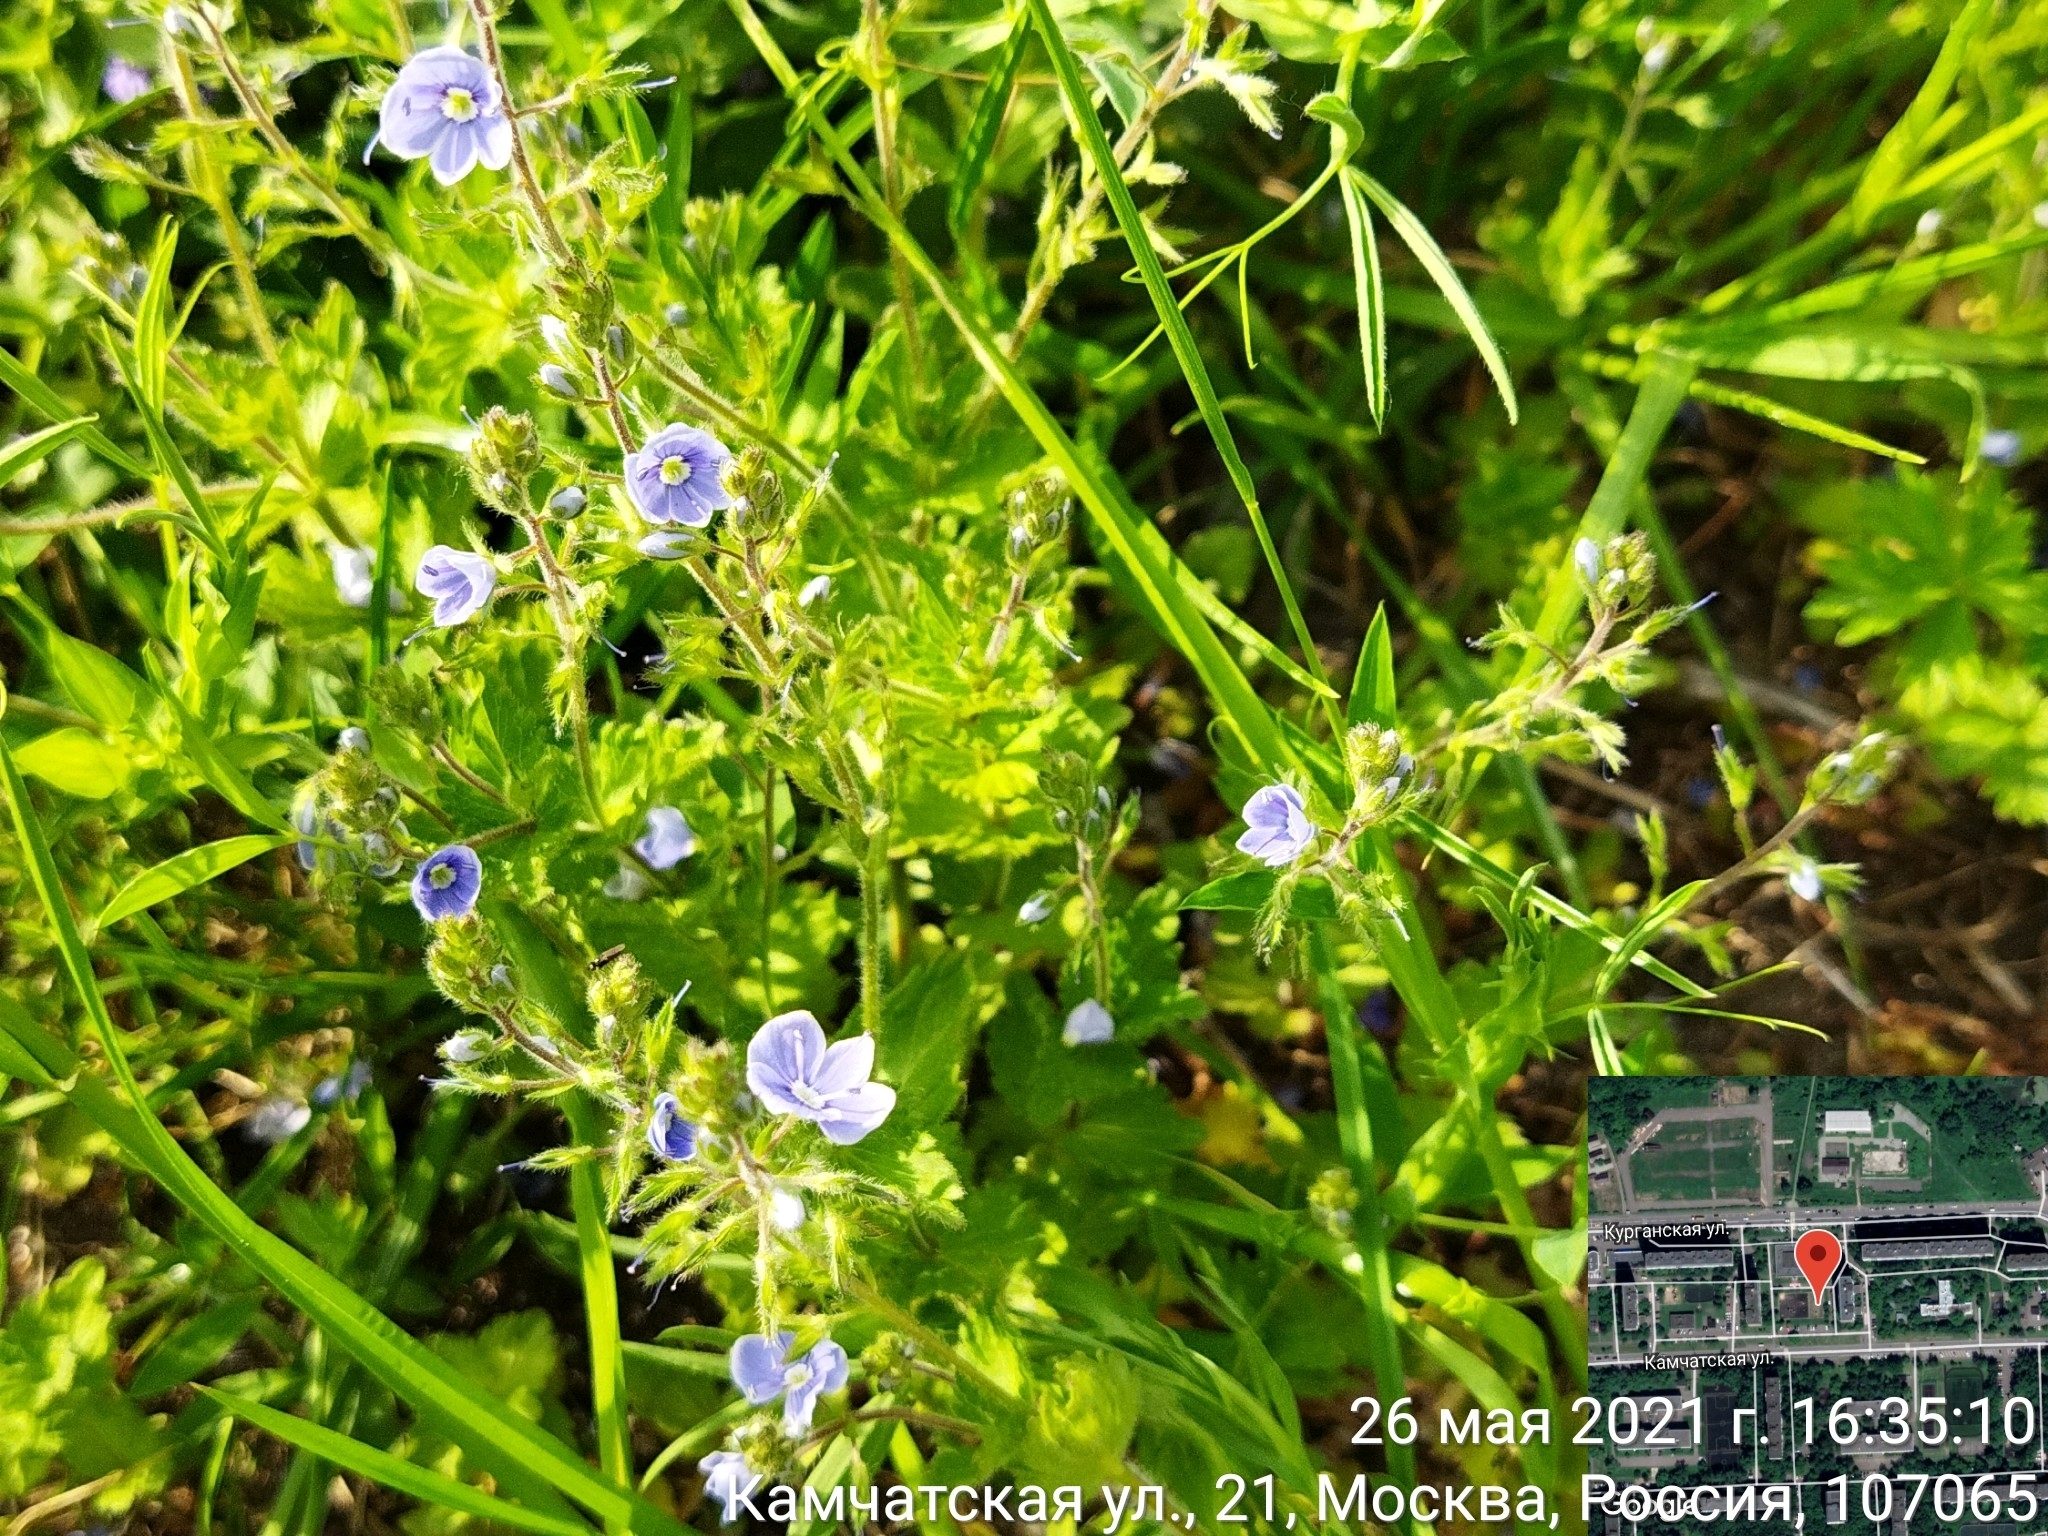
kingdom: Plantae
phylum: Tracheophyta
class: Magnoliopsida
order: Lamiales
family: Plantaginaceae
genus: Veronica
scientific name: Veronica chamaedrys
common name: Germander speedwell
